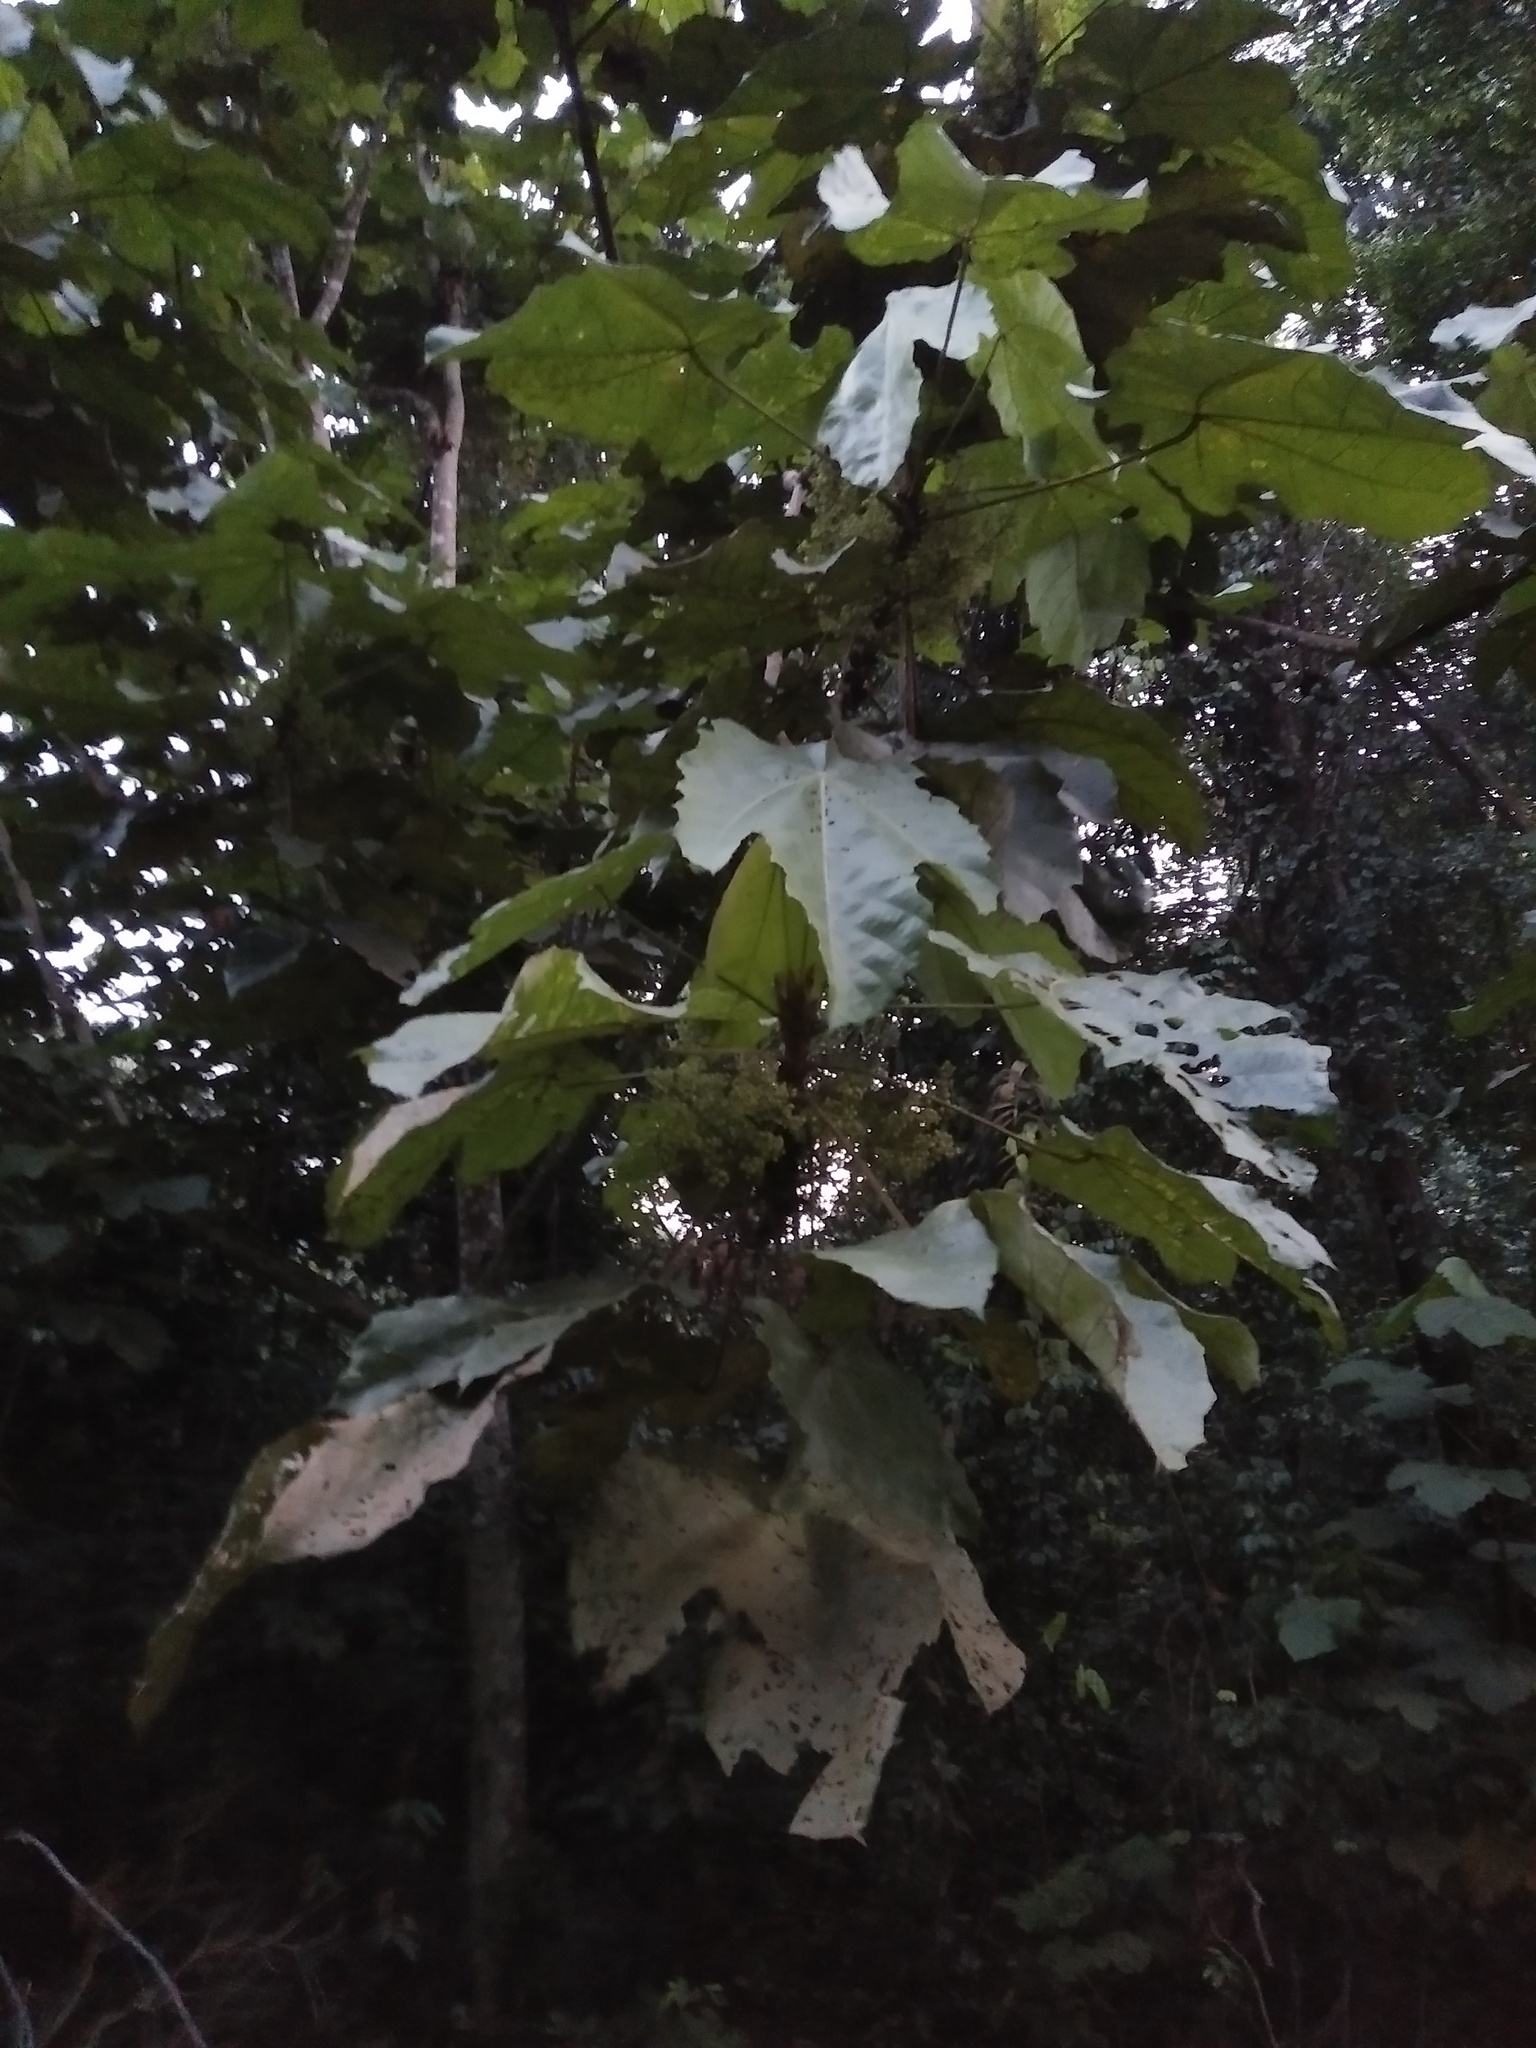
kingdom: Plantae
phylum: Tracheophyta
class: Magnoliopsida
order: Malpighiales
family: Euphorbiaceae
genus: Macaranga
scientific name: Macaranga gigantea
